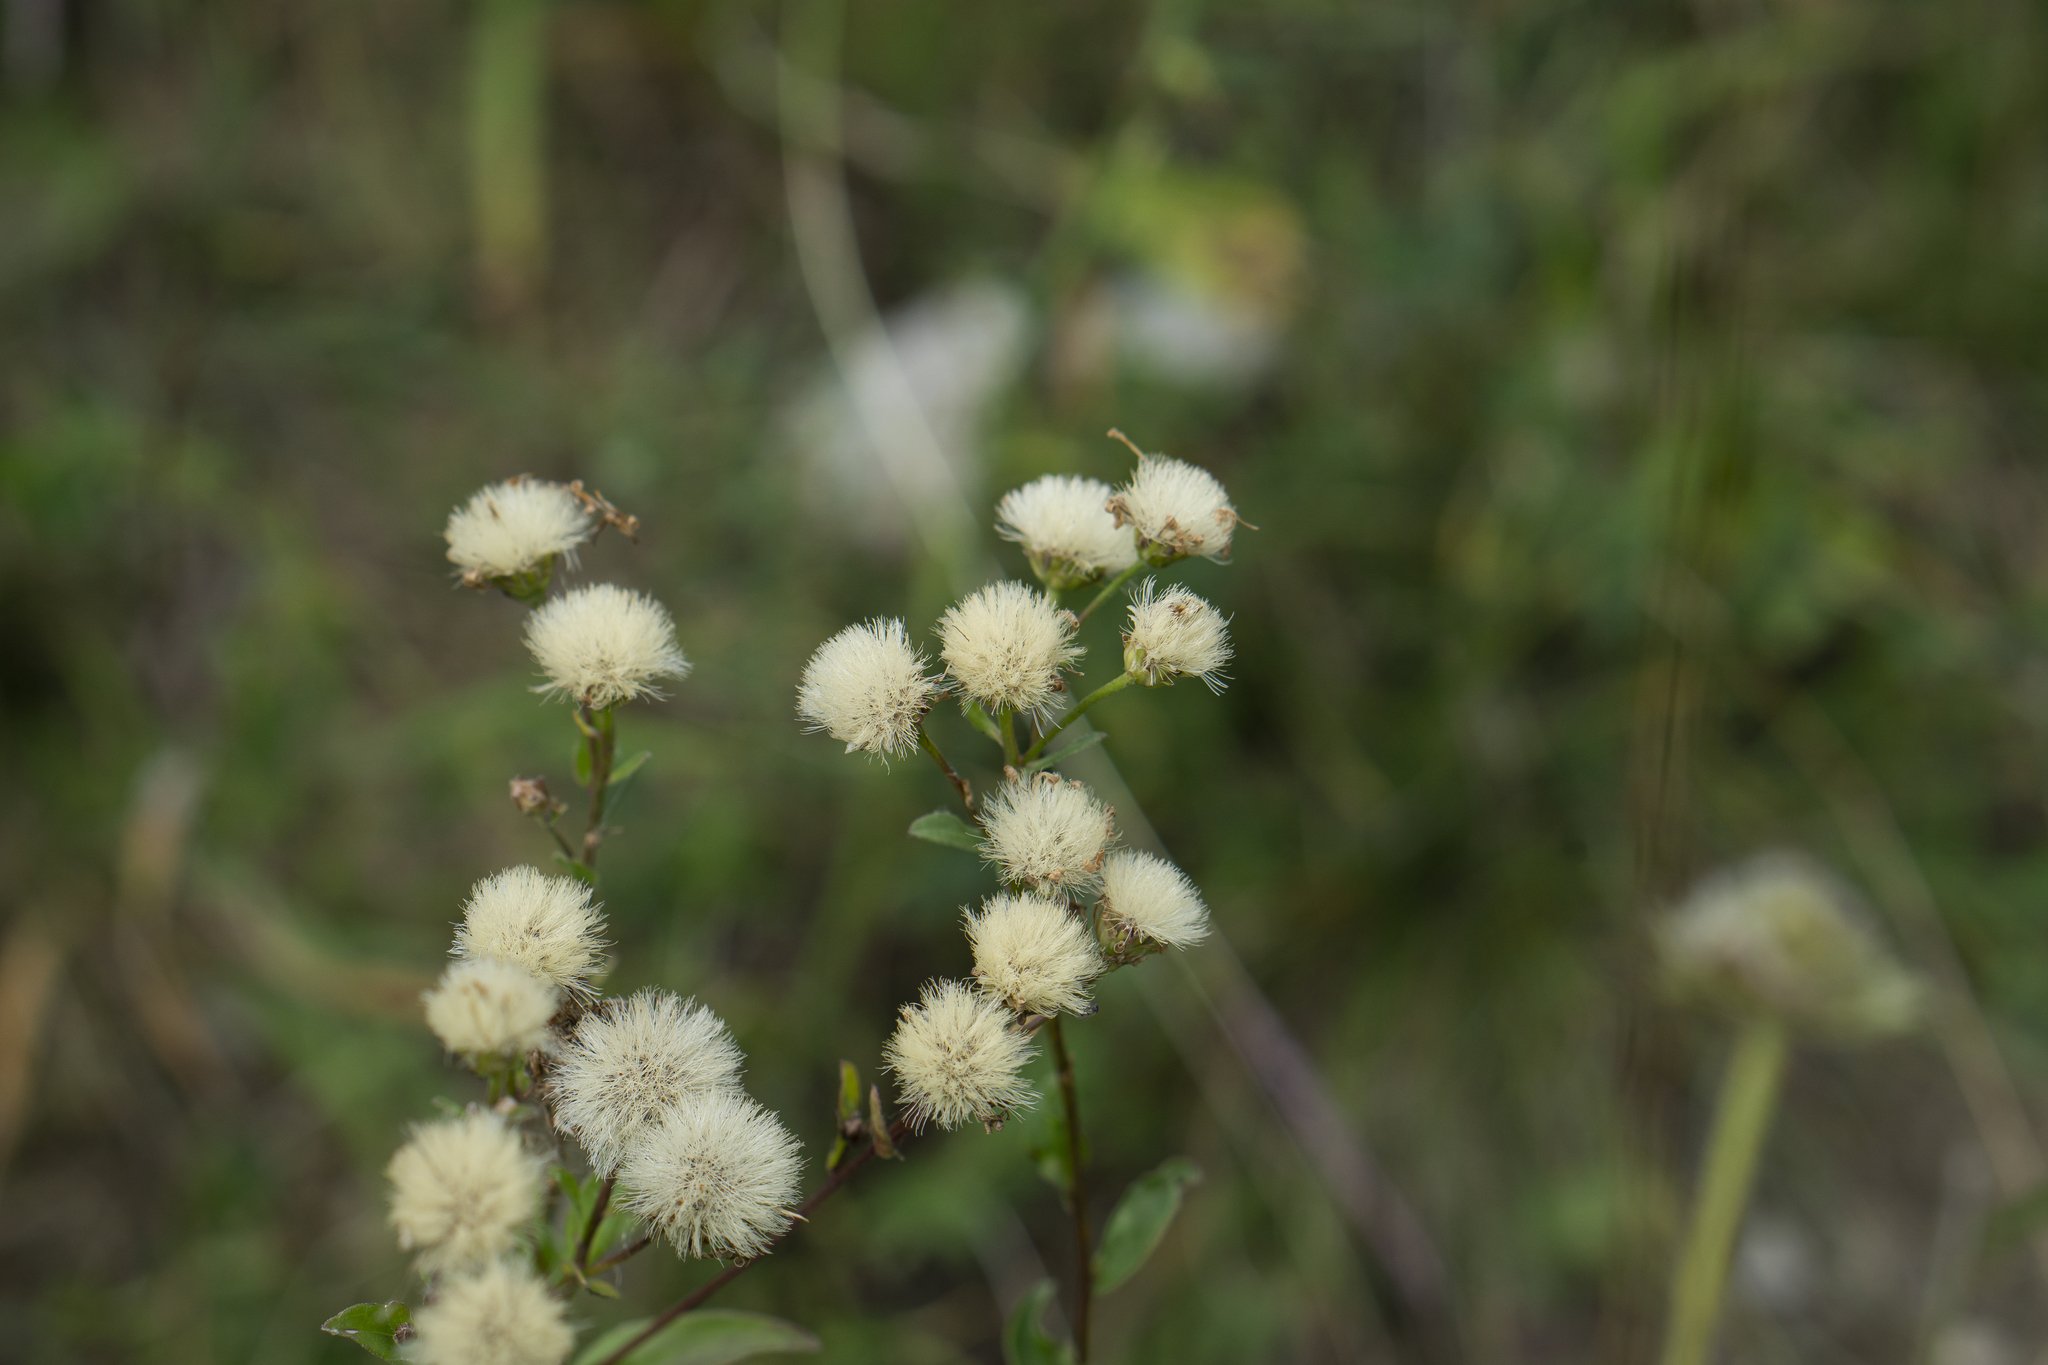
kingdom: Plantae
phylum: Tracheophyta
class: Magnoliopsida
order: Asterales
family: Asteraceae
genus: Aster
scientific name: Aster amellus
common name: European michaelmas daisy
